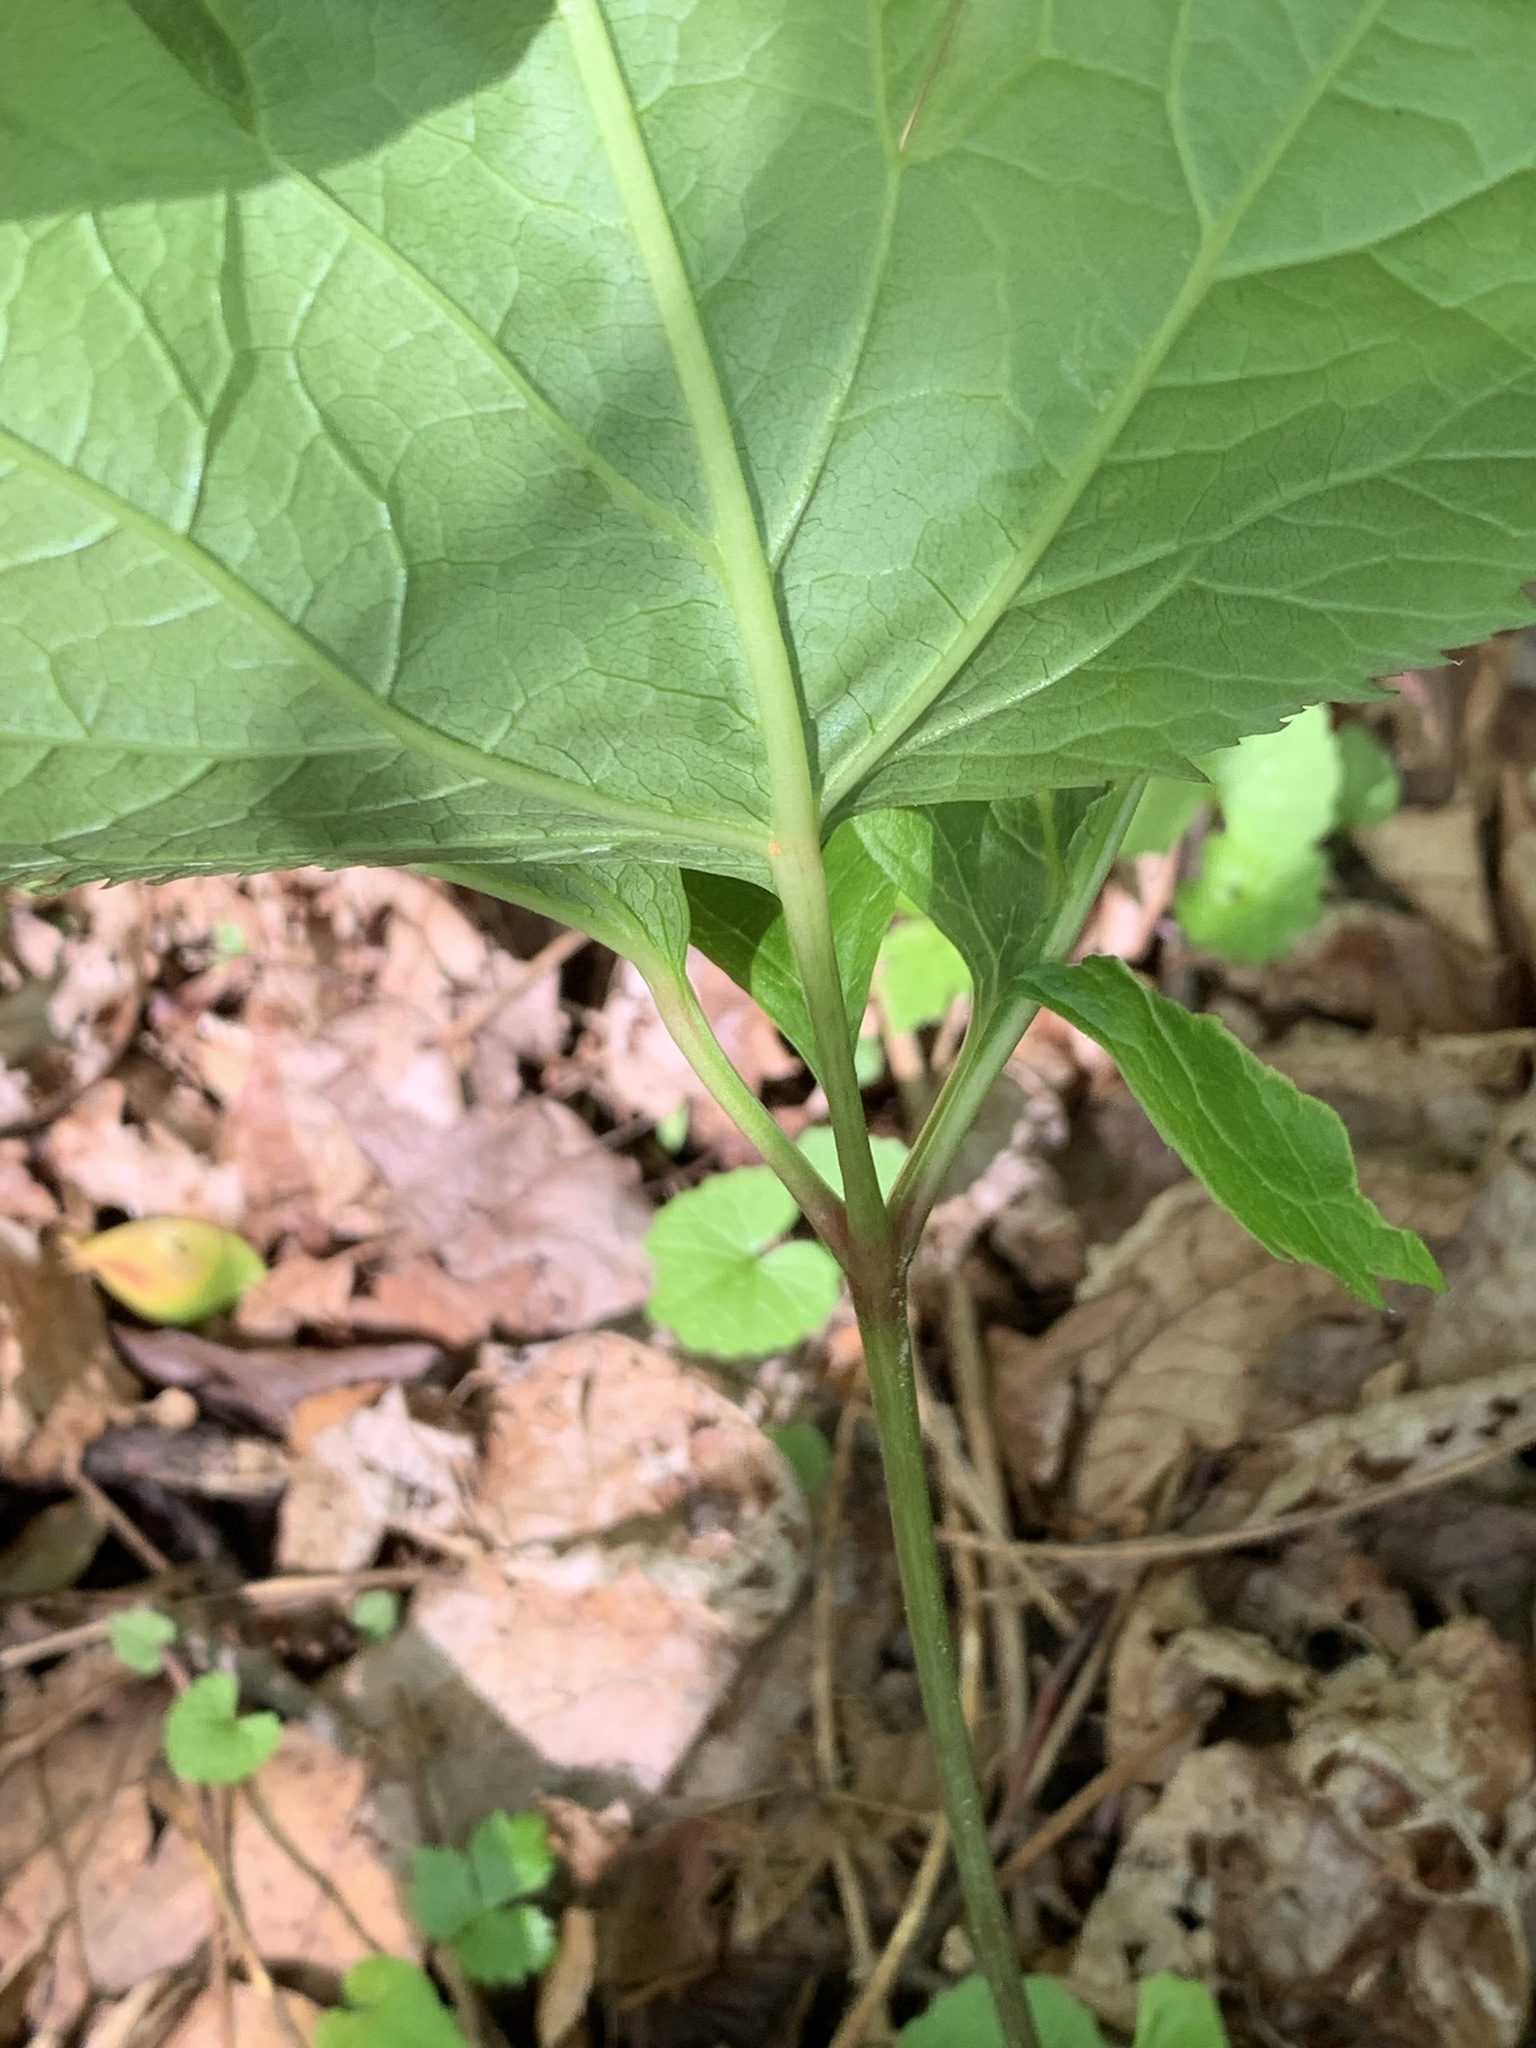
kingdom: Plantae
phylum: Tracheophyta
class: Magnoliopsida
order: Apiales
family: Apiaceae
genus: Cryptotaenia
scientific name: Cryptotaenia canadensis
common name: Honewort
